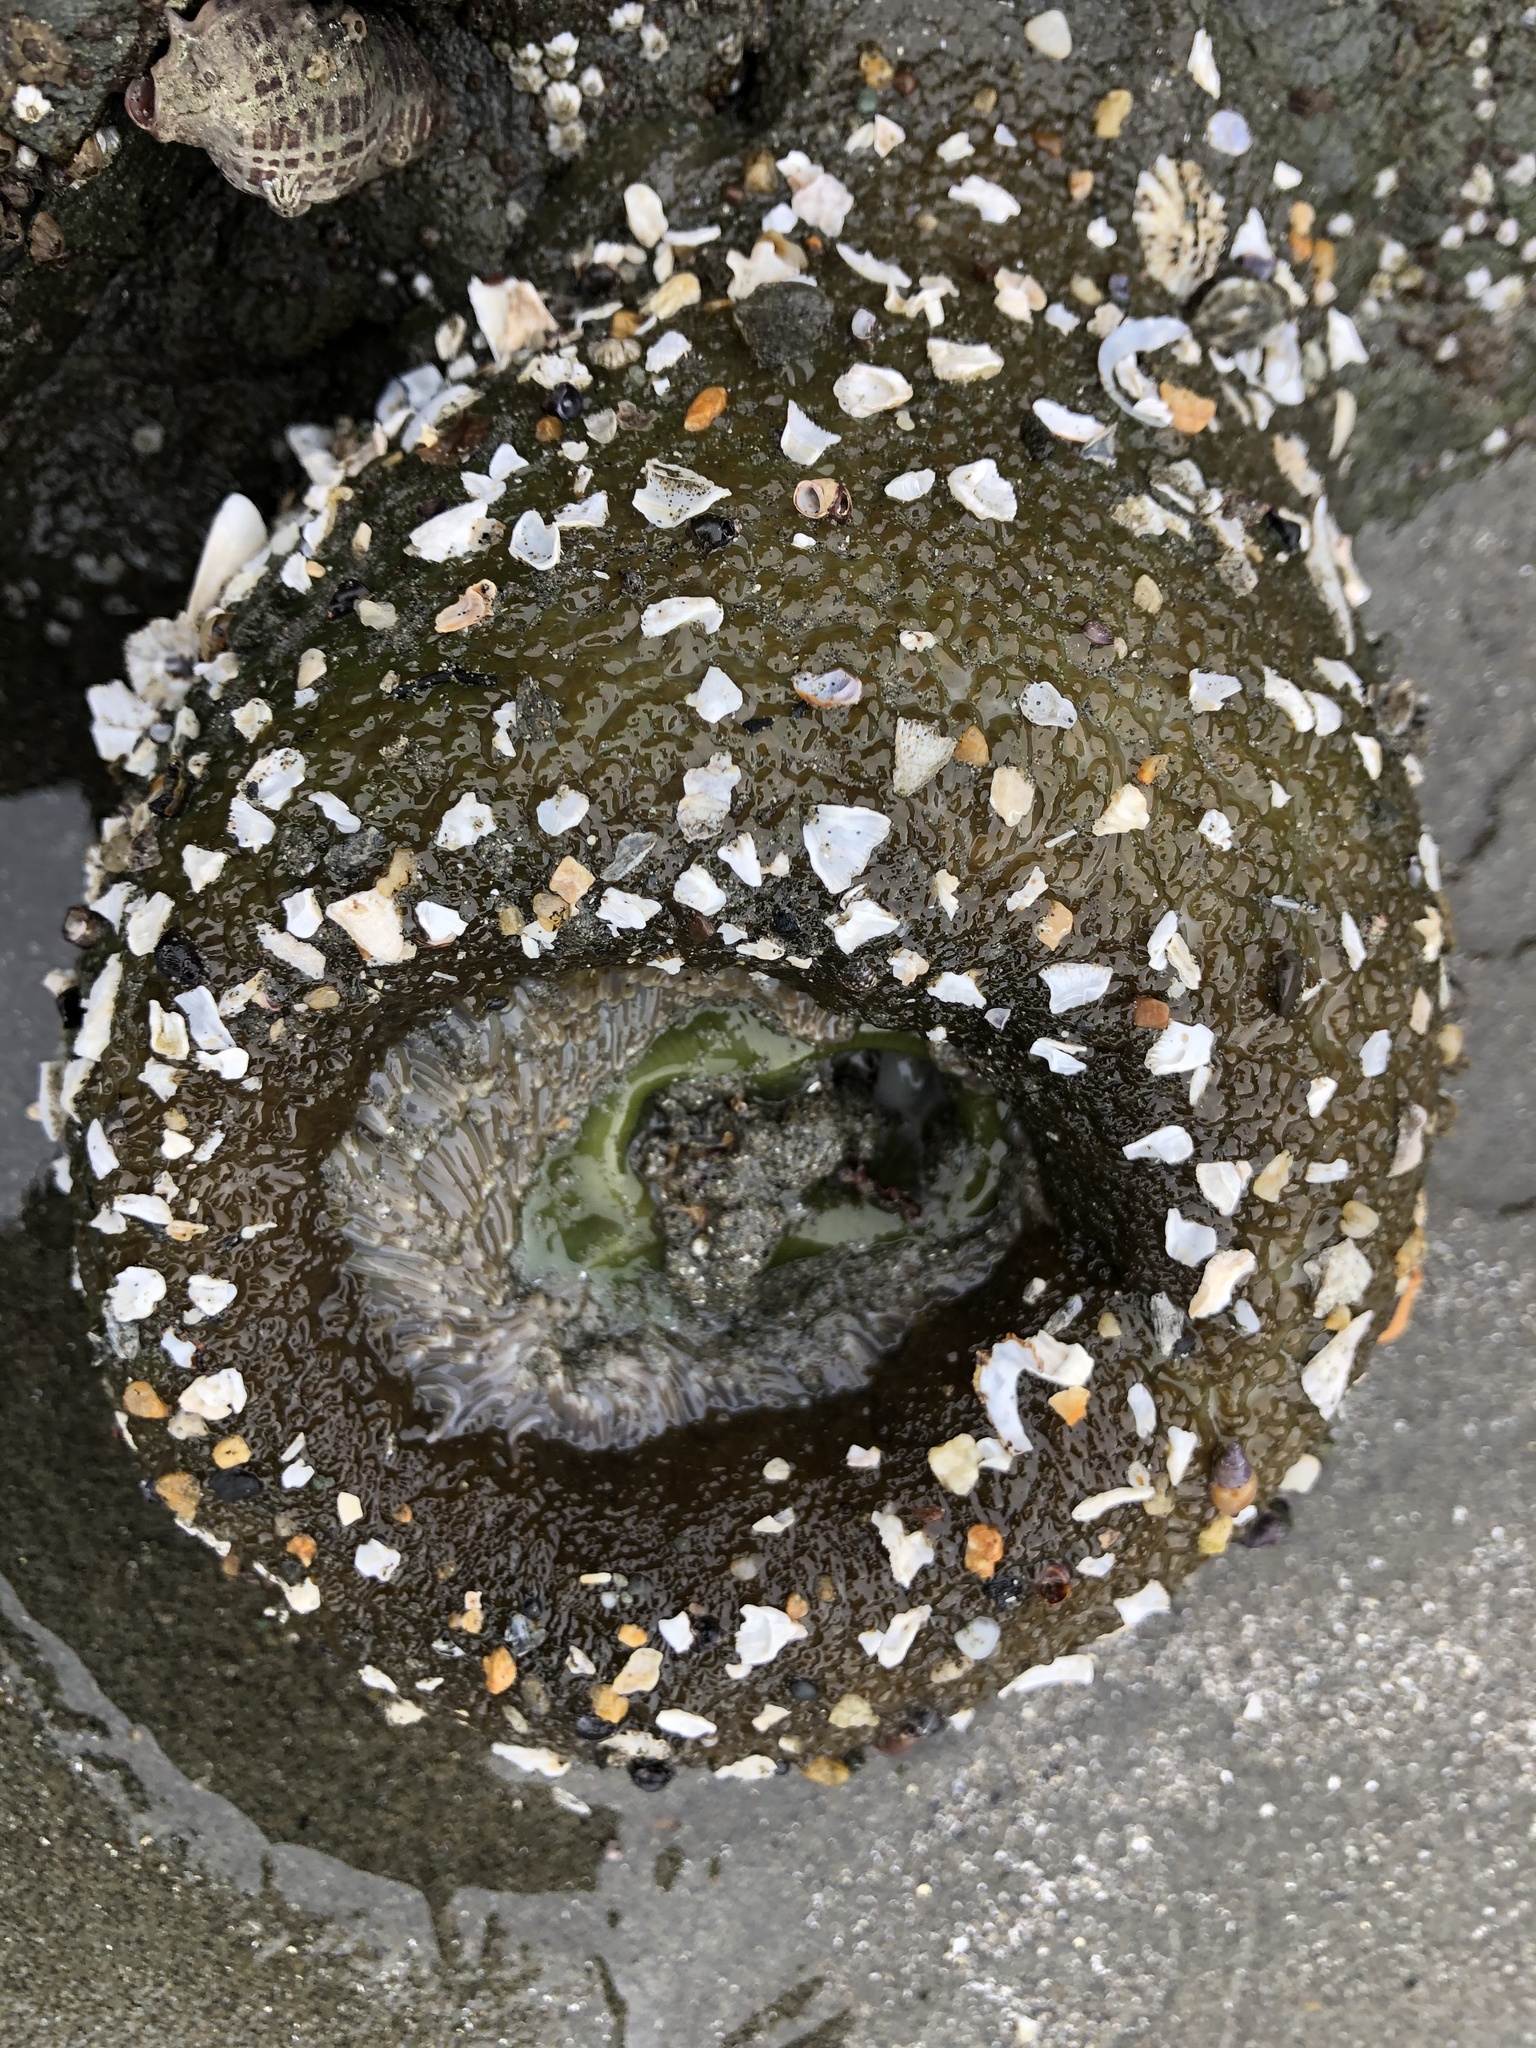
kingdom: Animalia
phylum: Cnidaria
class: Anthozoa
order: Actiniaria
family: Actiniidae
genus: Anthopleura
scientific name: Anthopleura xanthogrammica
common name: Giant green anemone
